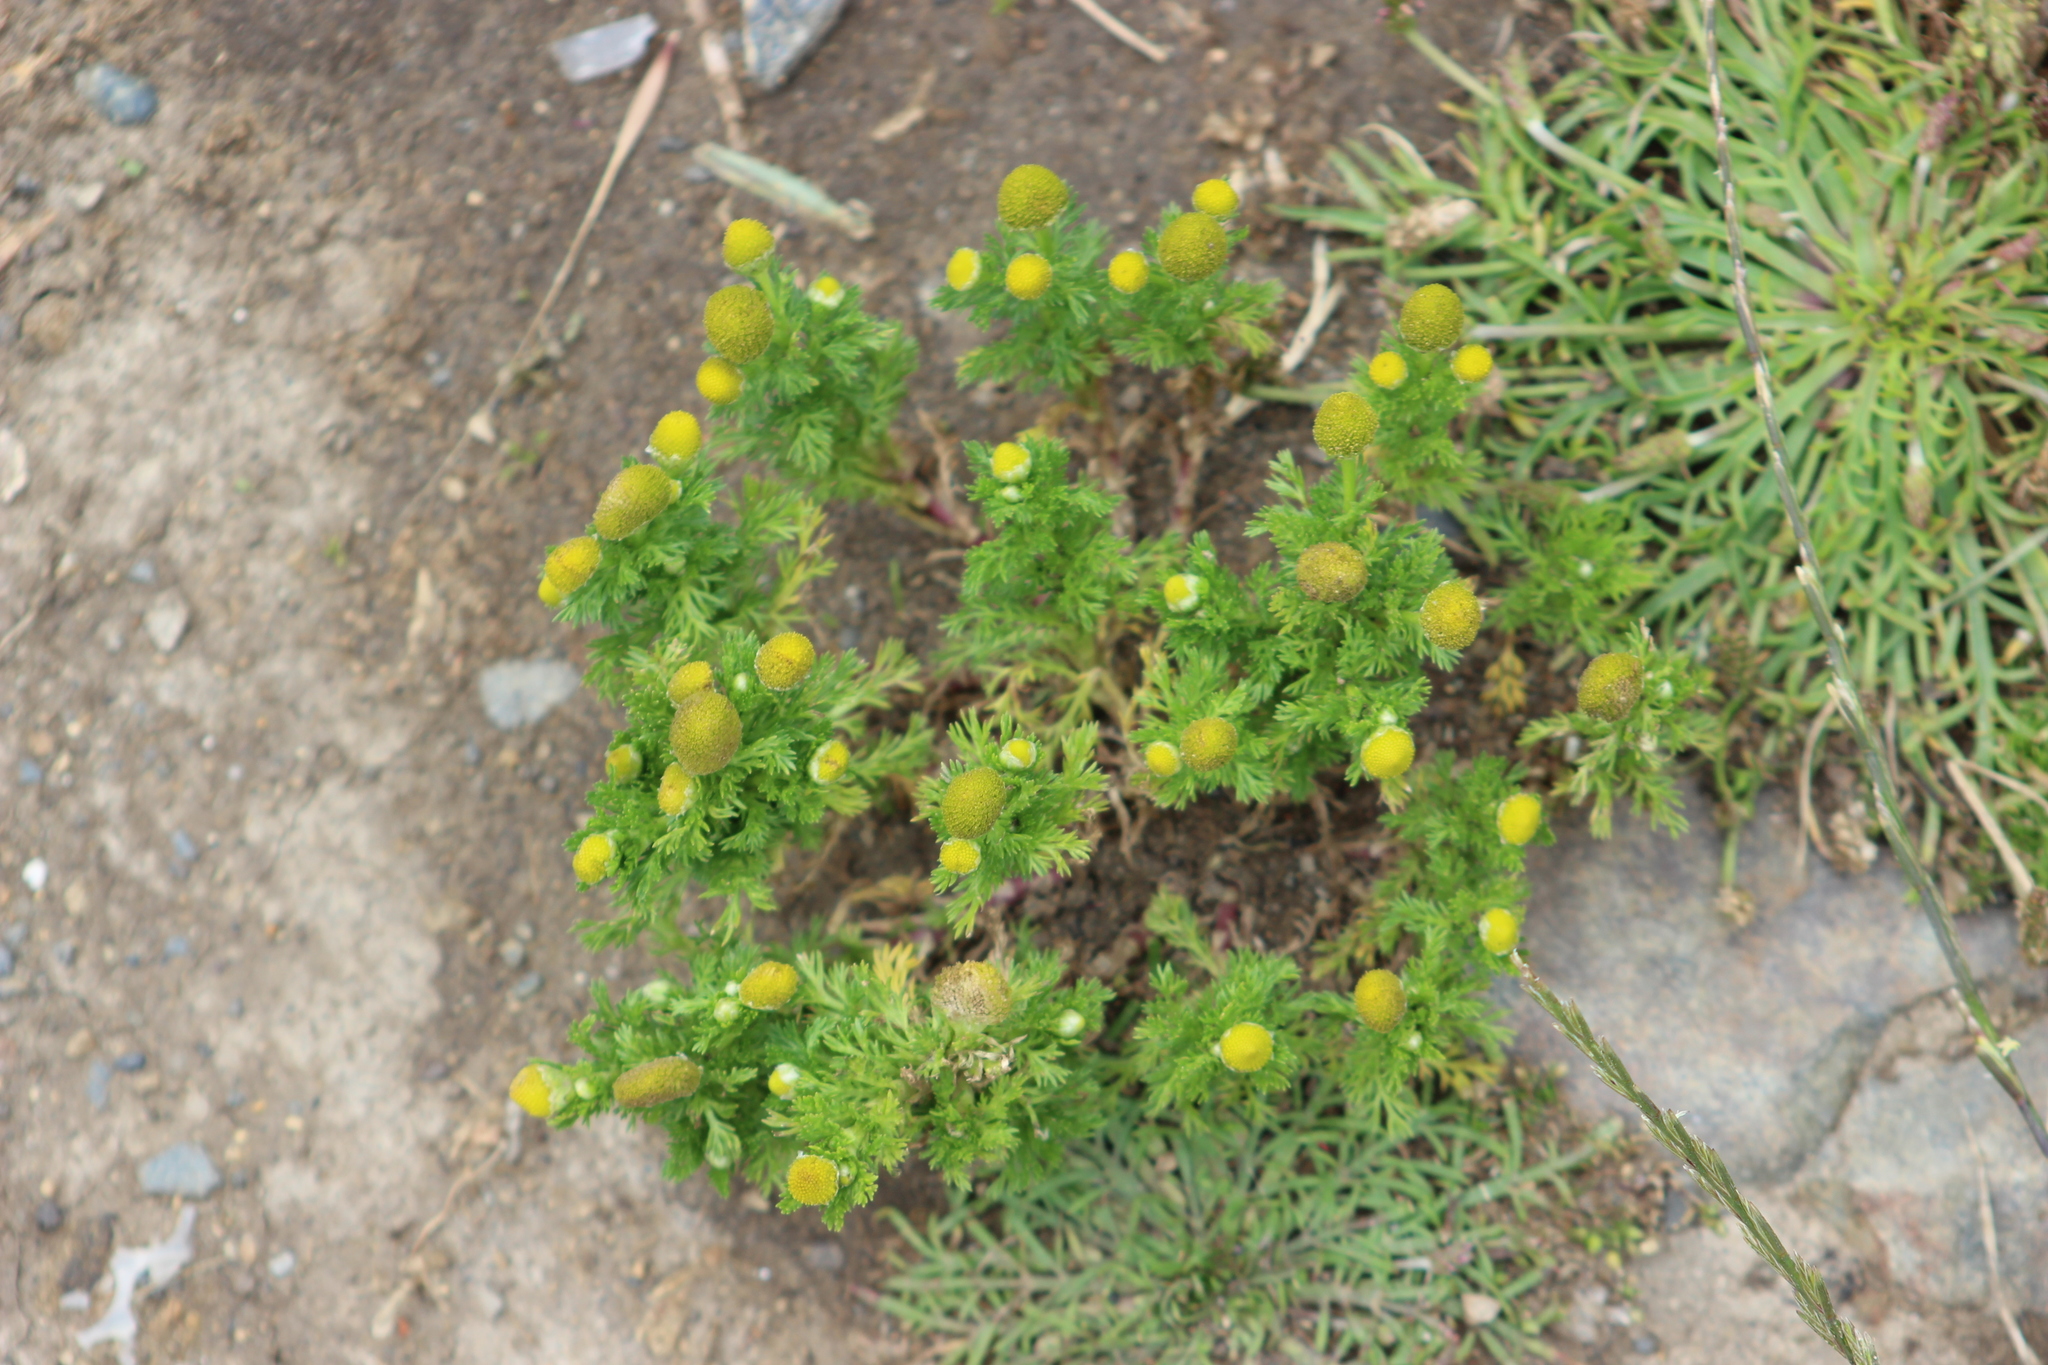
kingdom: Plantae
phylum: Tracheophyta
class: Magnoliopsida
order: Asterales
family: Asteraceae
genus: Matricaria
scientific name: Matricaria discoidea
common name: Disc mayweed
